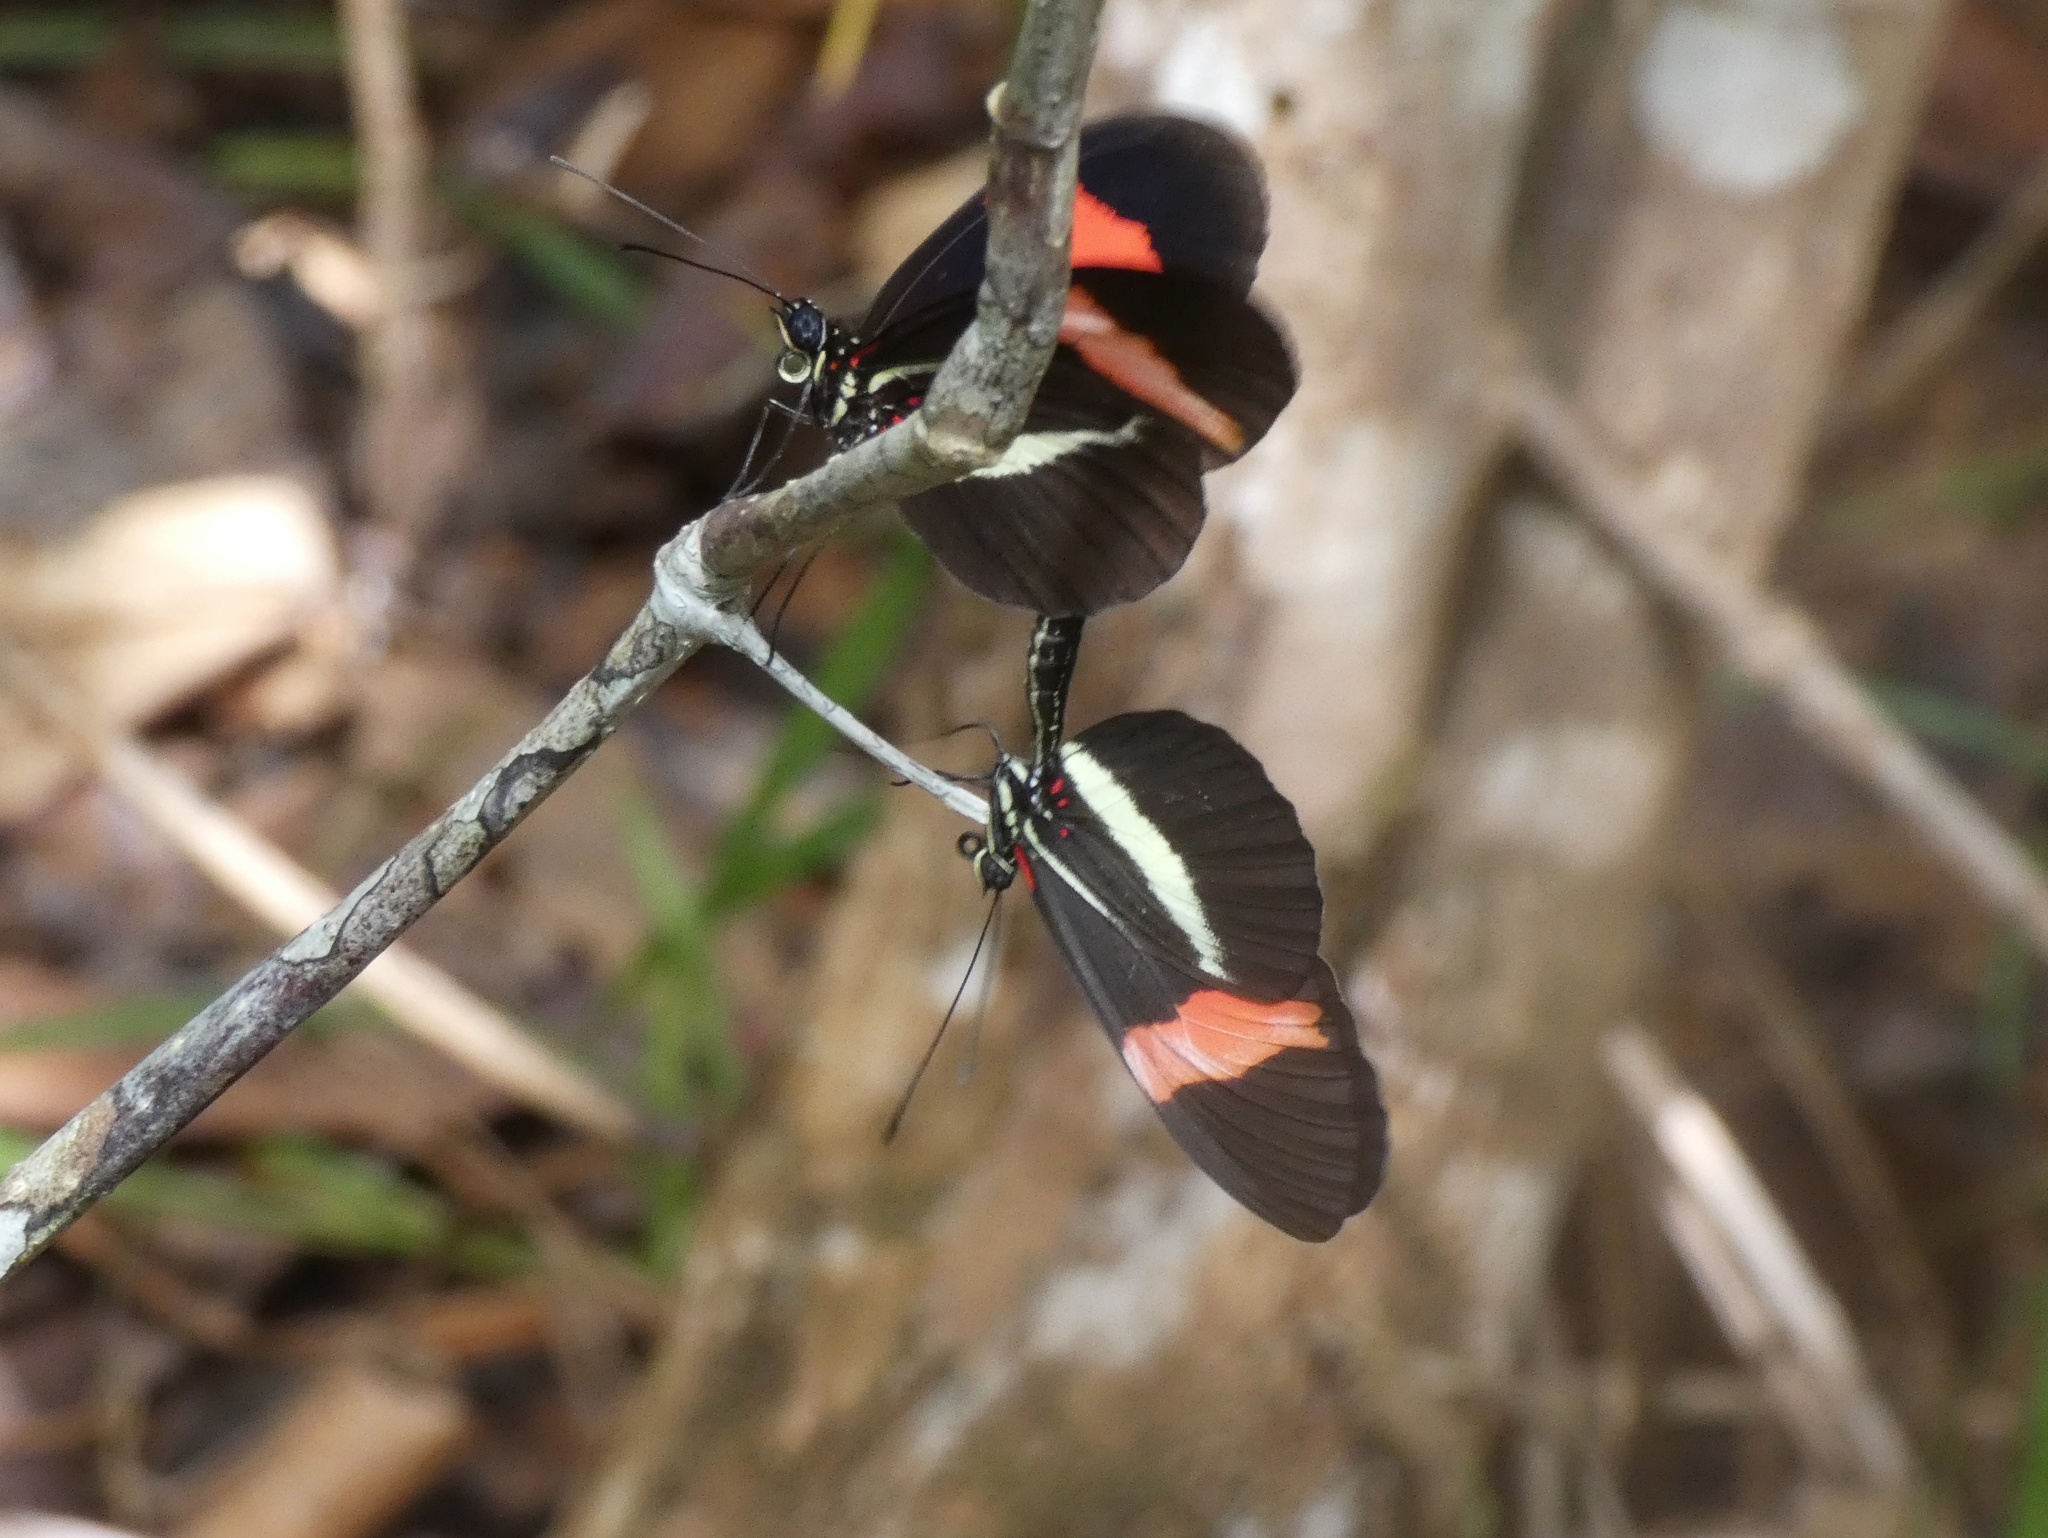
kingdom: Animalia
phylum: Arthropoda
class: Insecta
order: Lepidoptera
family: Nymphalidae
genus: Tirumala
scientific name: Tirumala petiverana
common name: Blue monarch
